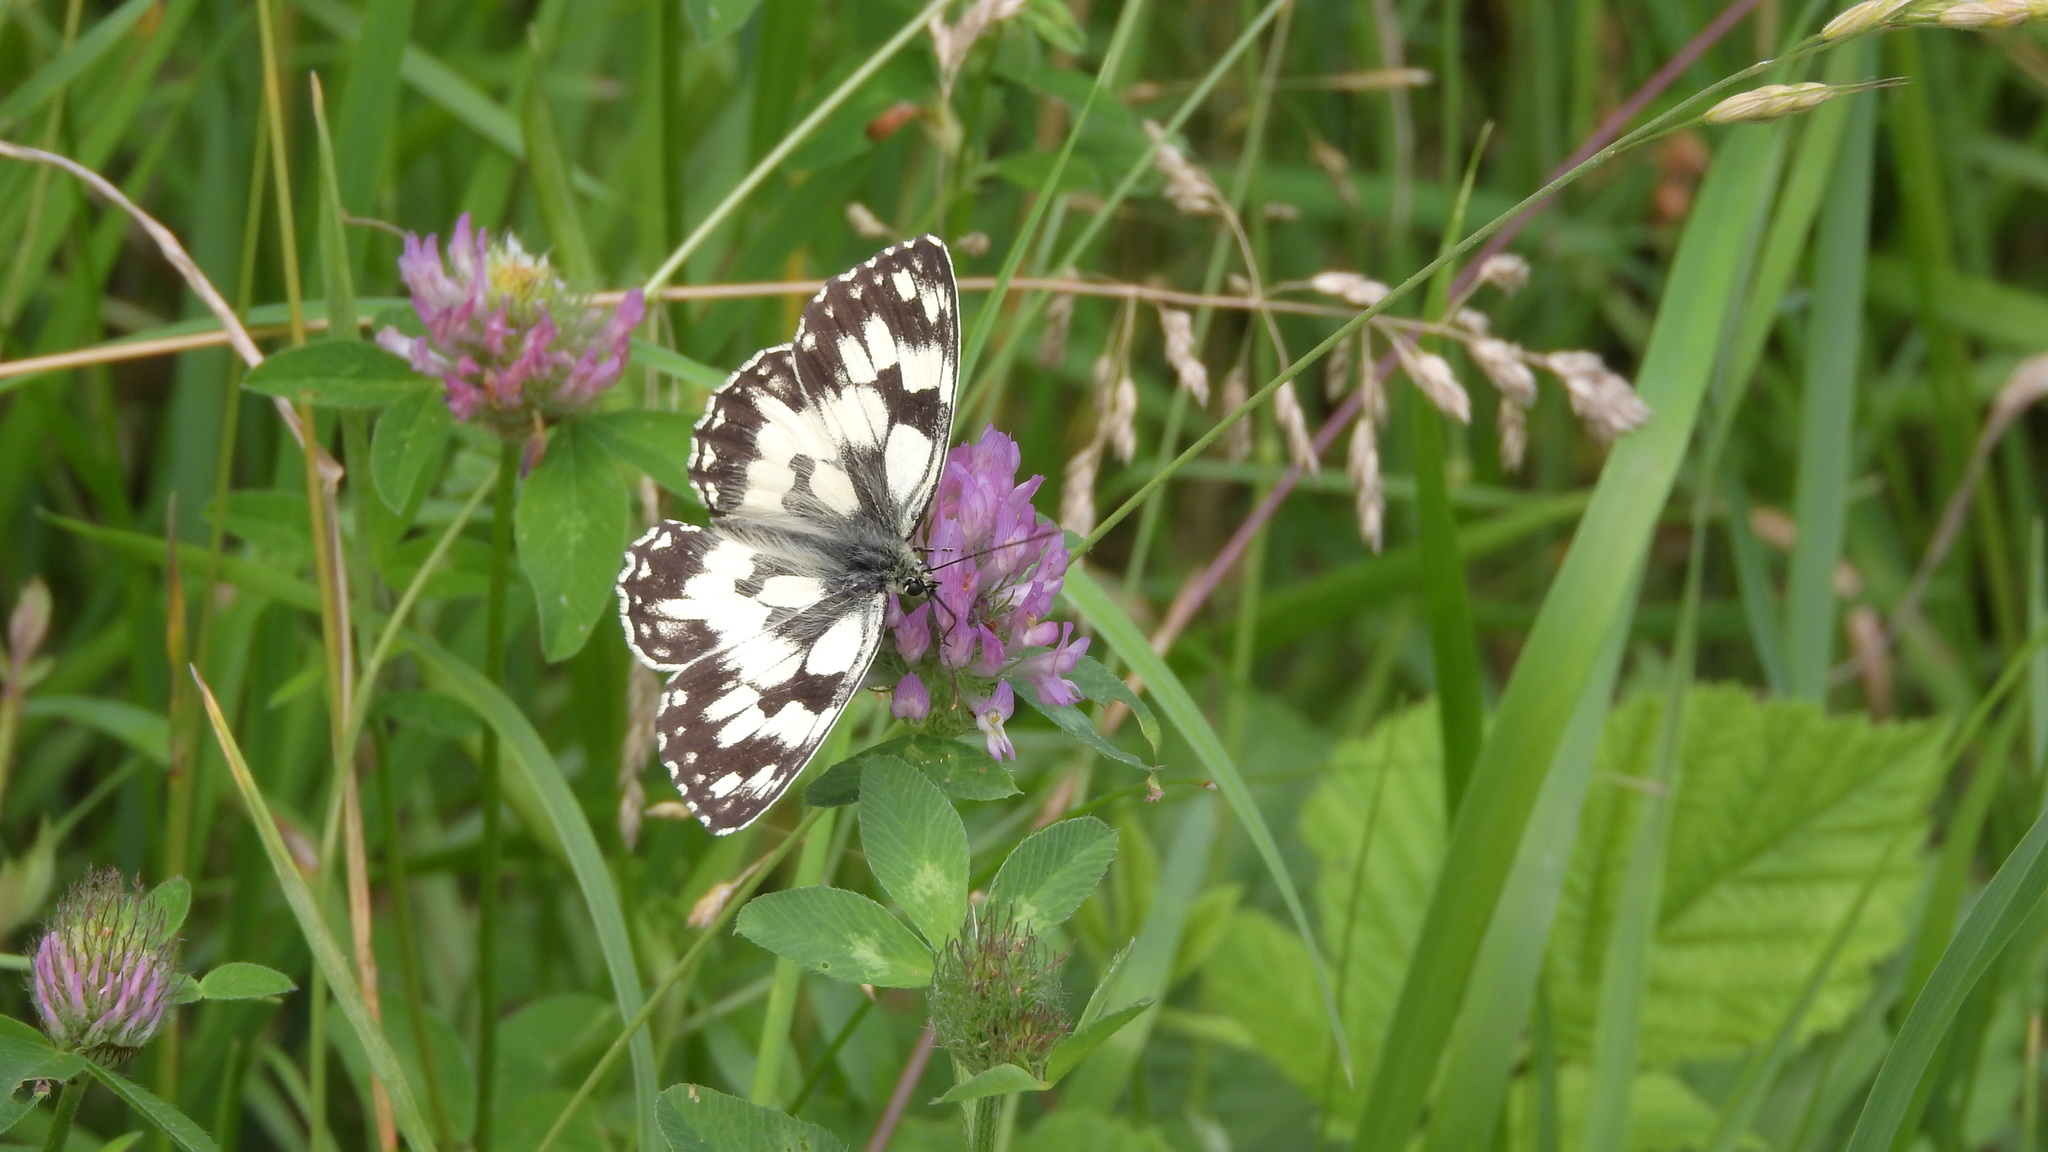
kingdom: Animalia
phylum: Arthropoda
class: Insecta
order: Lepidoptera
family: Nymphalidae
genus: Melanargia
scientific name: Melanargia galathea
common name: Marbled white
